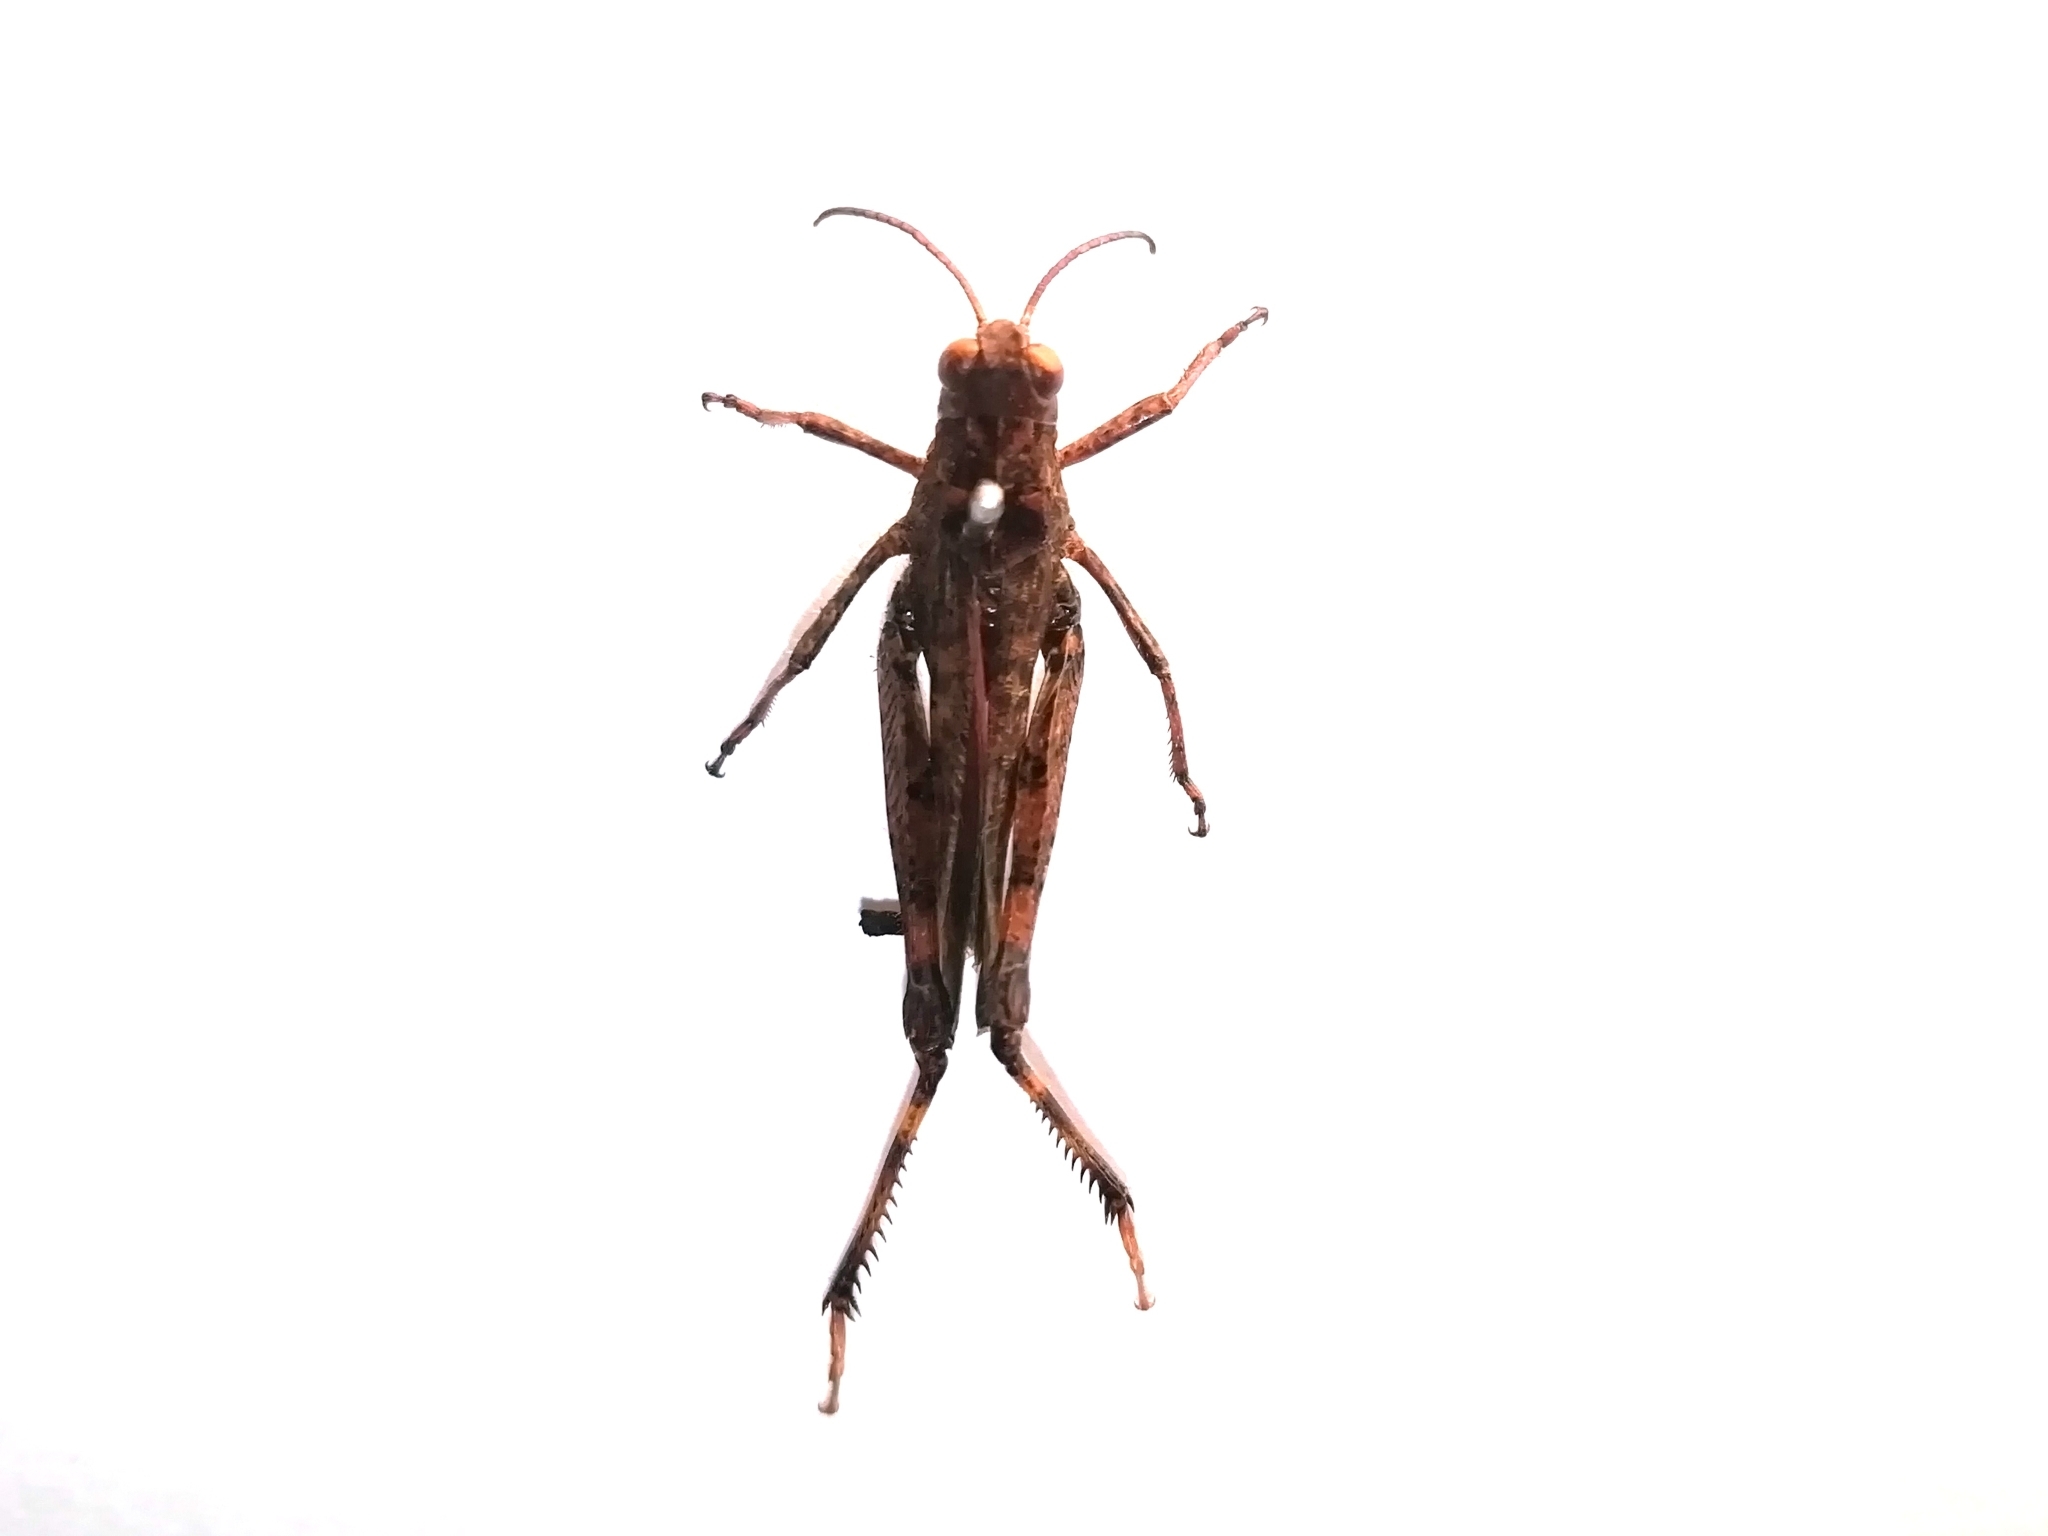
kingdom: Animalia
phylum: Arthropoda
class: Insecta
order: Orthoptera
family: Acrididae
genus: Celes
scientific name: Celes skalozubovi
